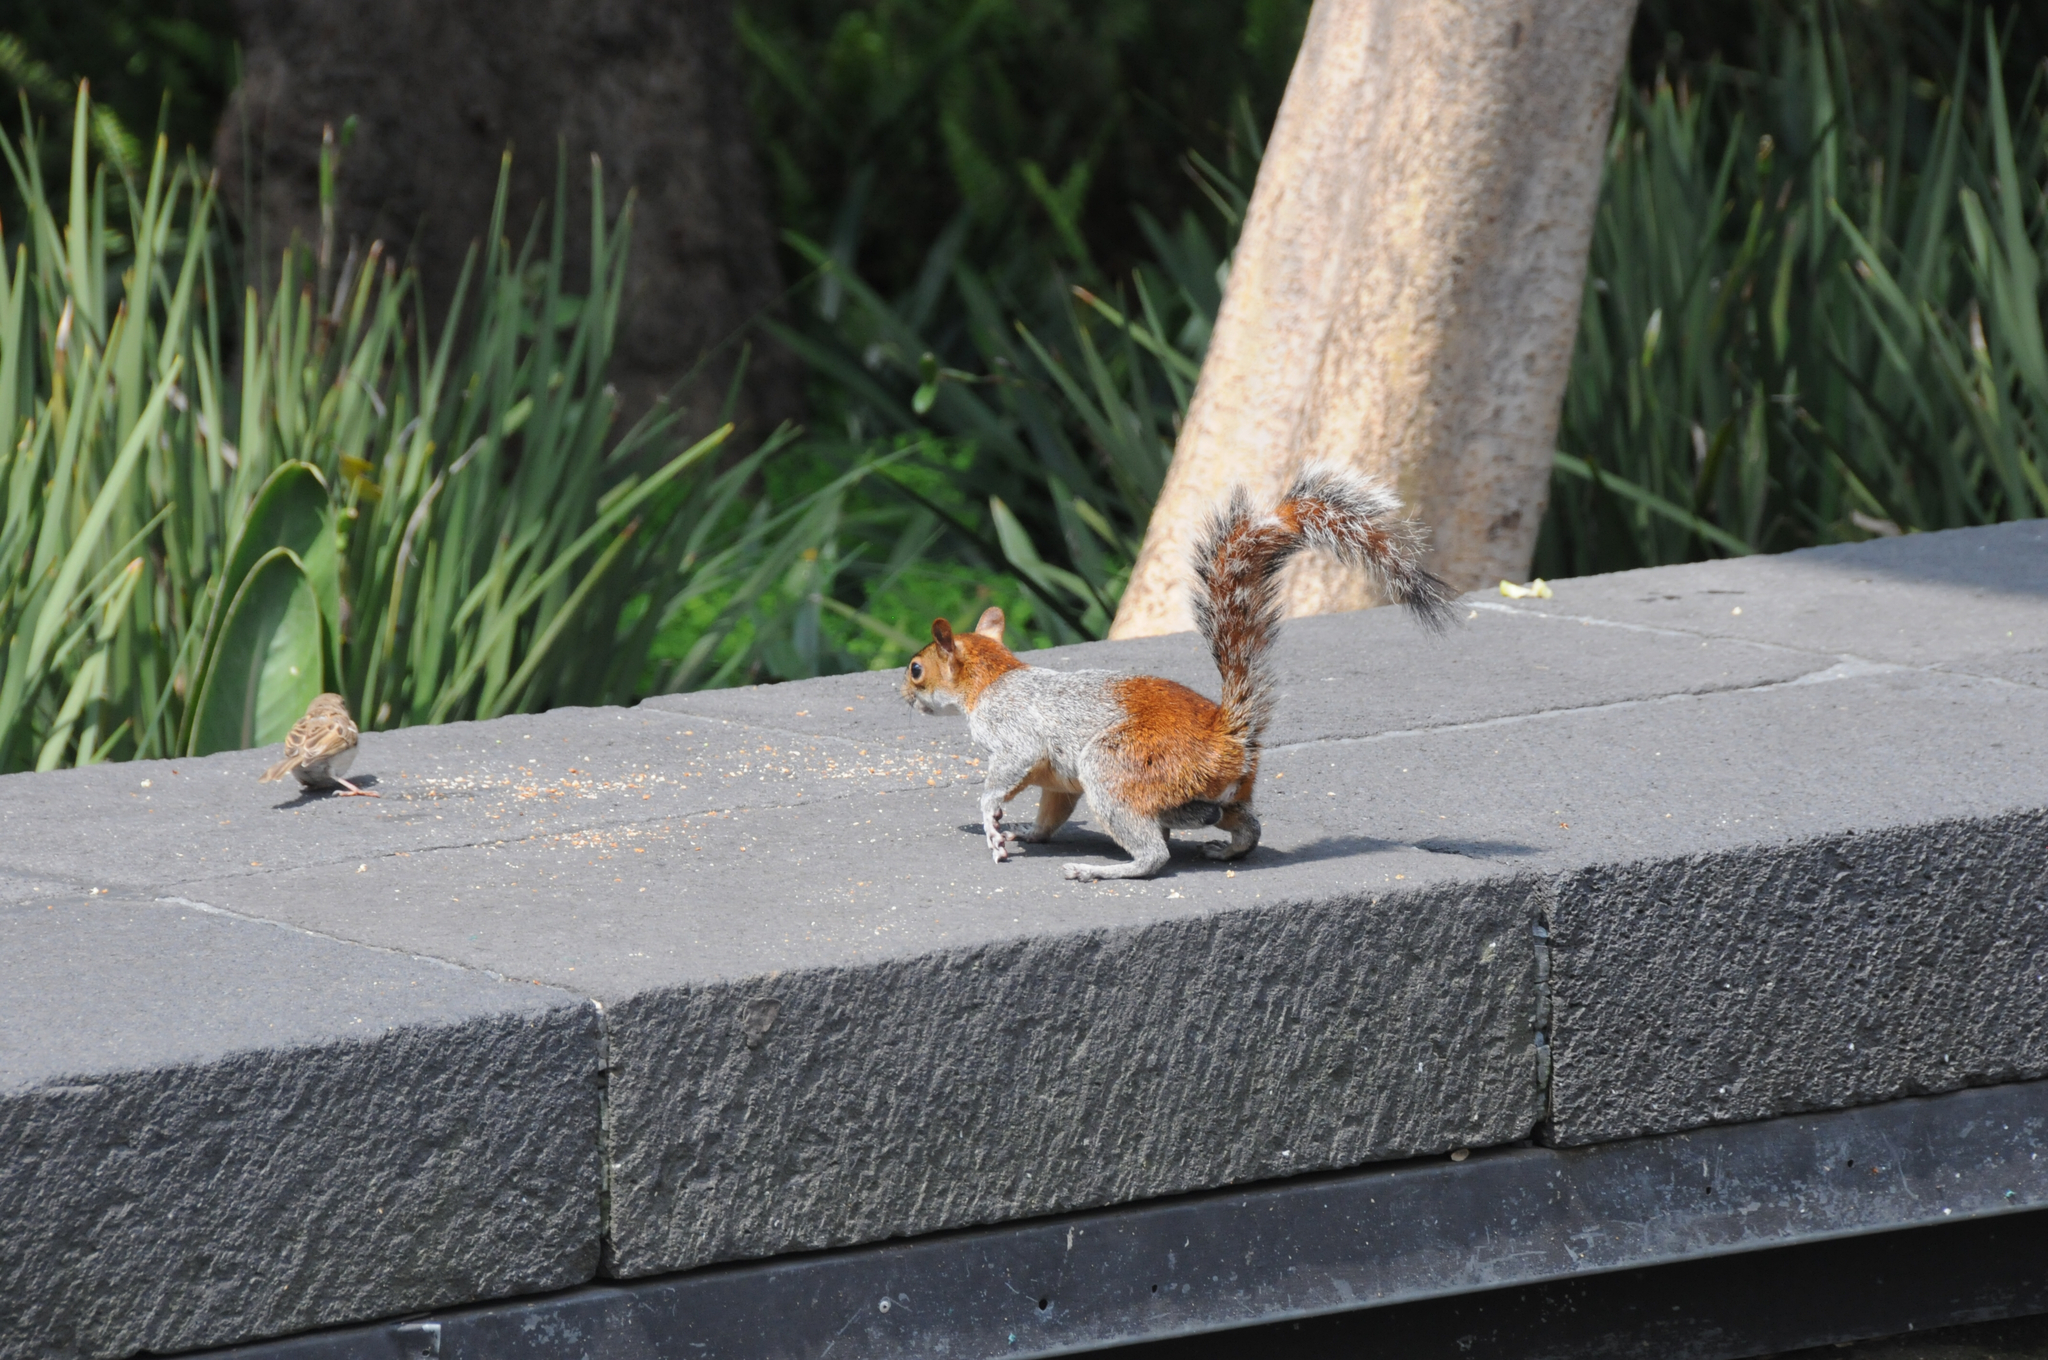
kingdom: Animalia
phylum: Chordata
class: Mammalia
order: Rodentia
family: Sciuridae
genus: Sciurus
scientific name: Sciurus aureogaster
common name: Red-bellied squirrel
